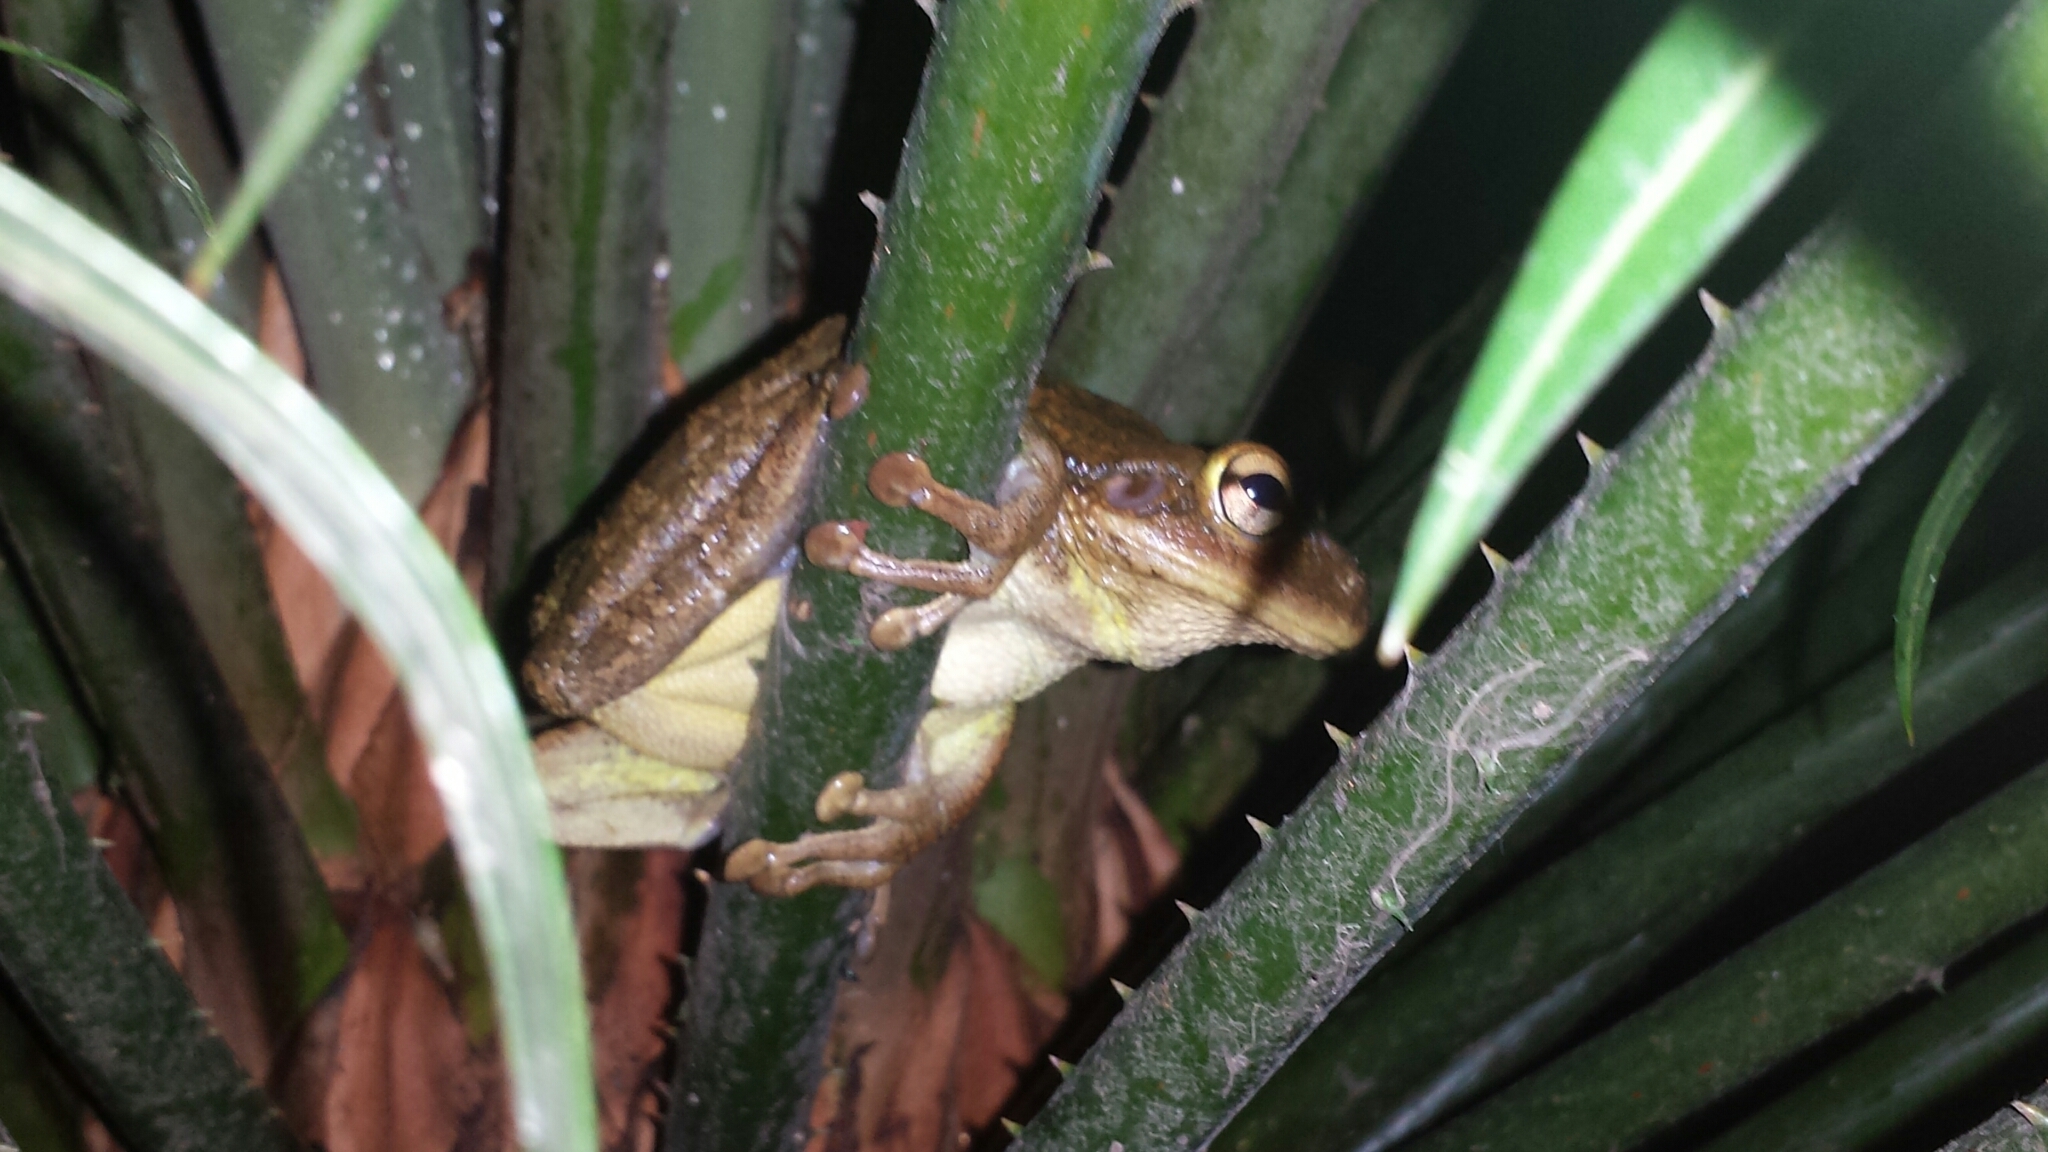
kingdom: Animalia
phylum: Chordata
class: Amphibia
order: Anura
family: Hylidae
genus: Osteopilus
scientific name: Osteopilus septentrionalis
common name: Cuban treefrog
